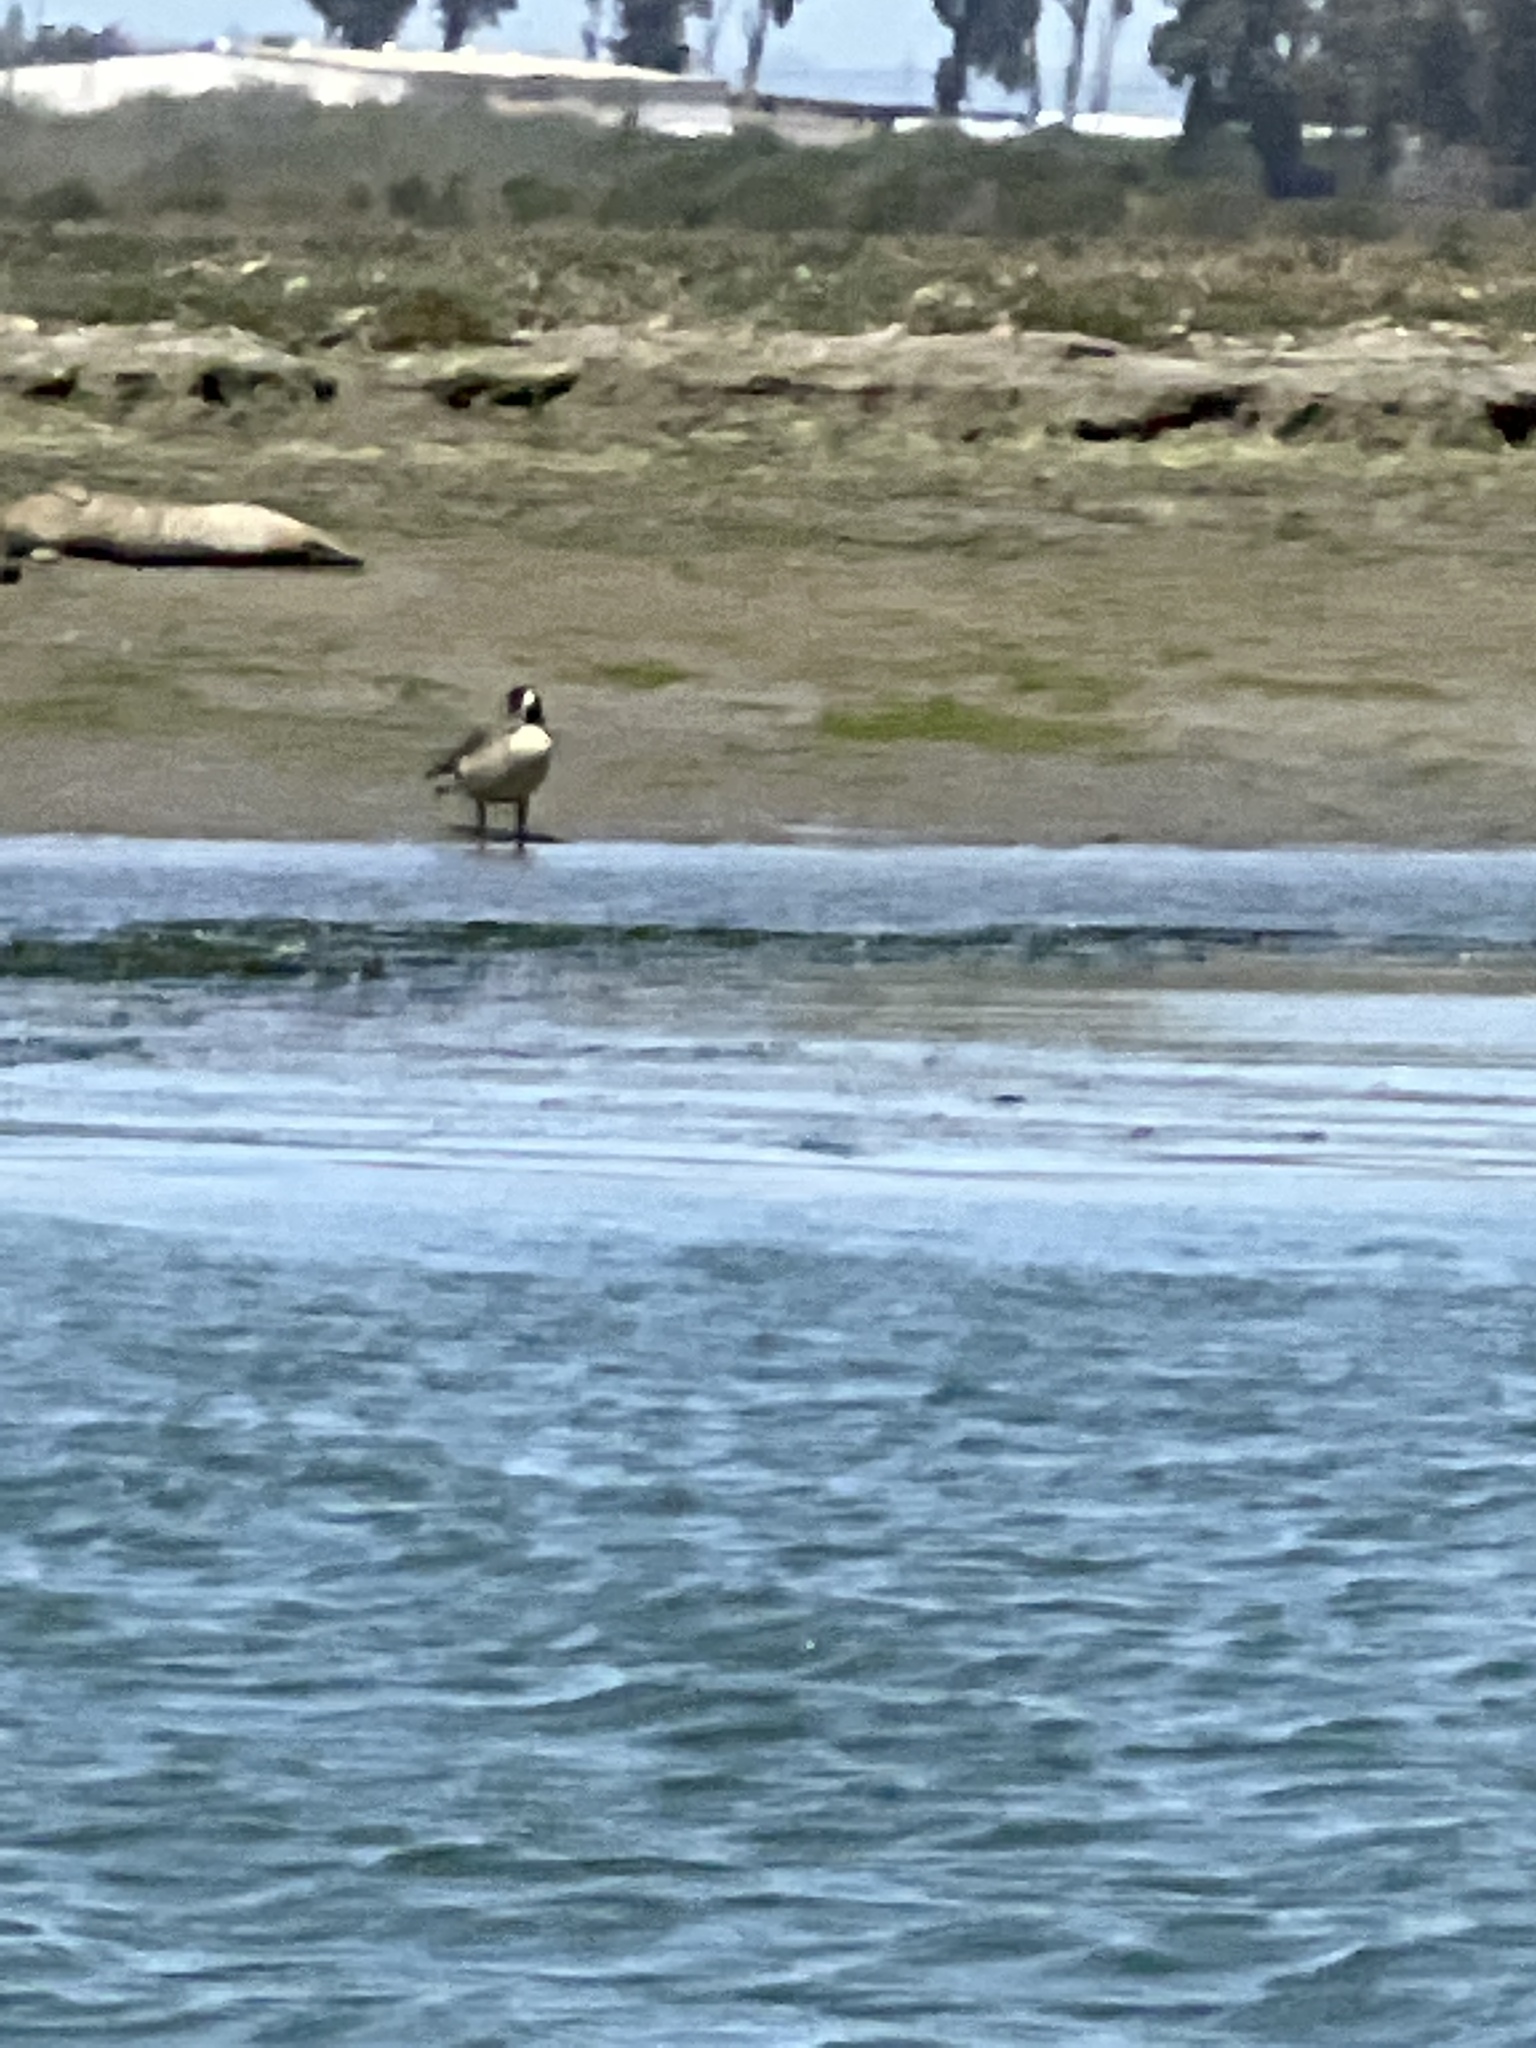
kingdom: Animalia
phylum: Chordata
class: Aves
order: Anseriformes
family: Anatidae
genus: Branta
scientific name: Branta canadensis
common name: Canada goose
